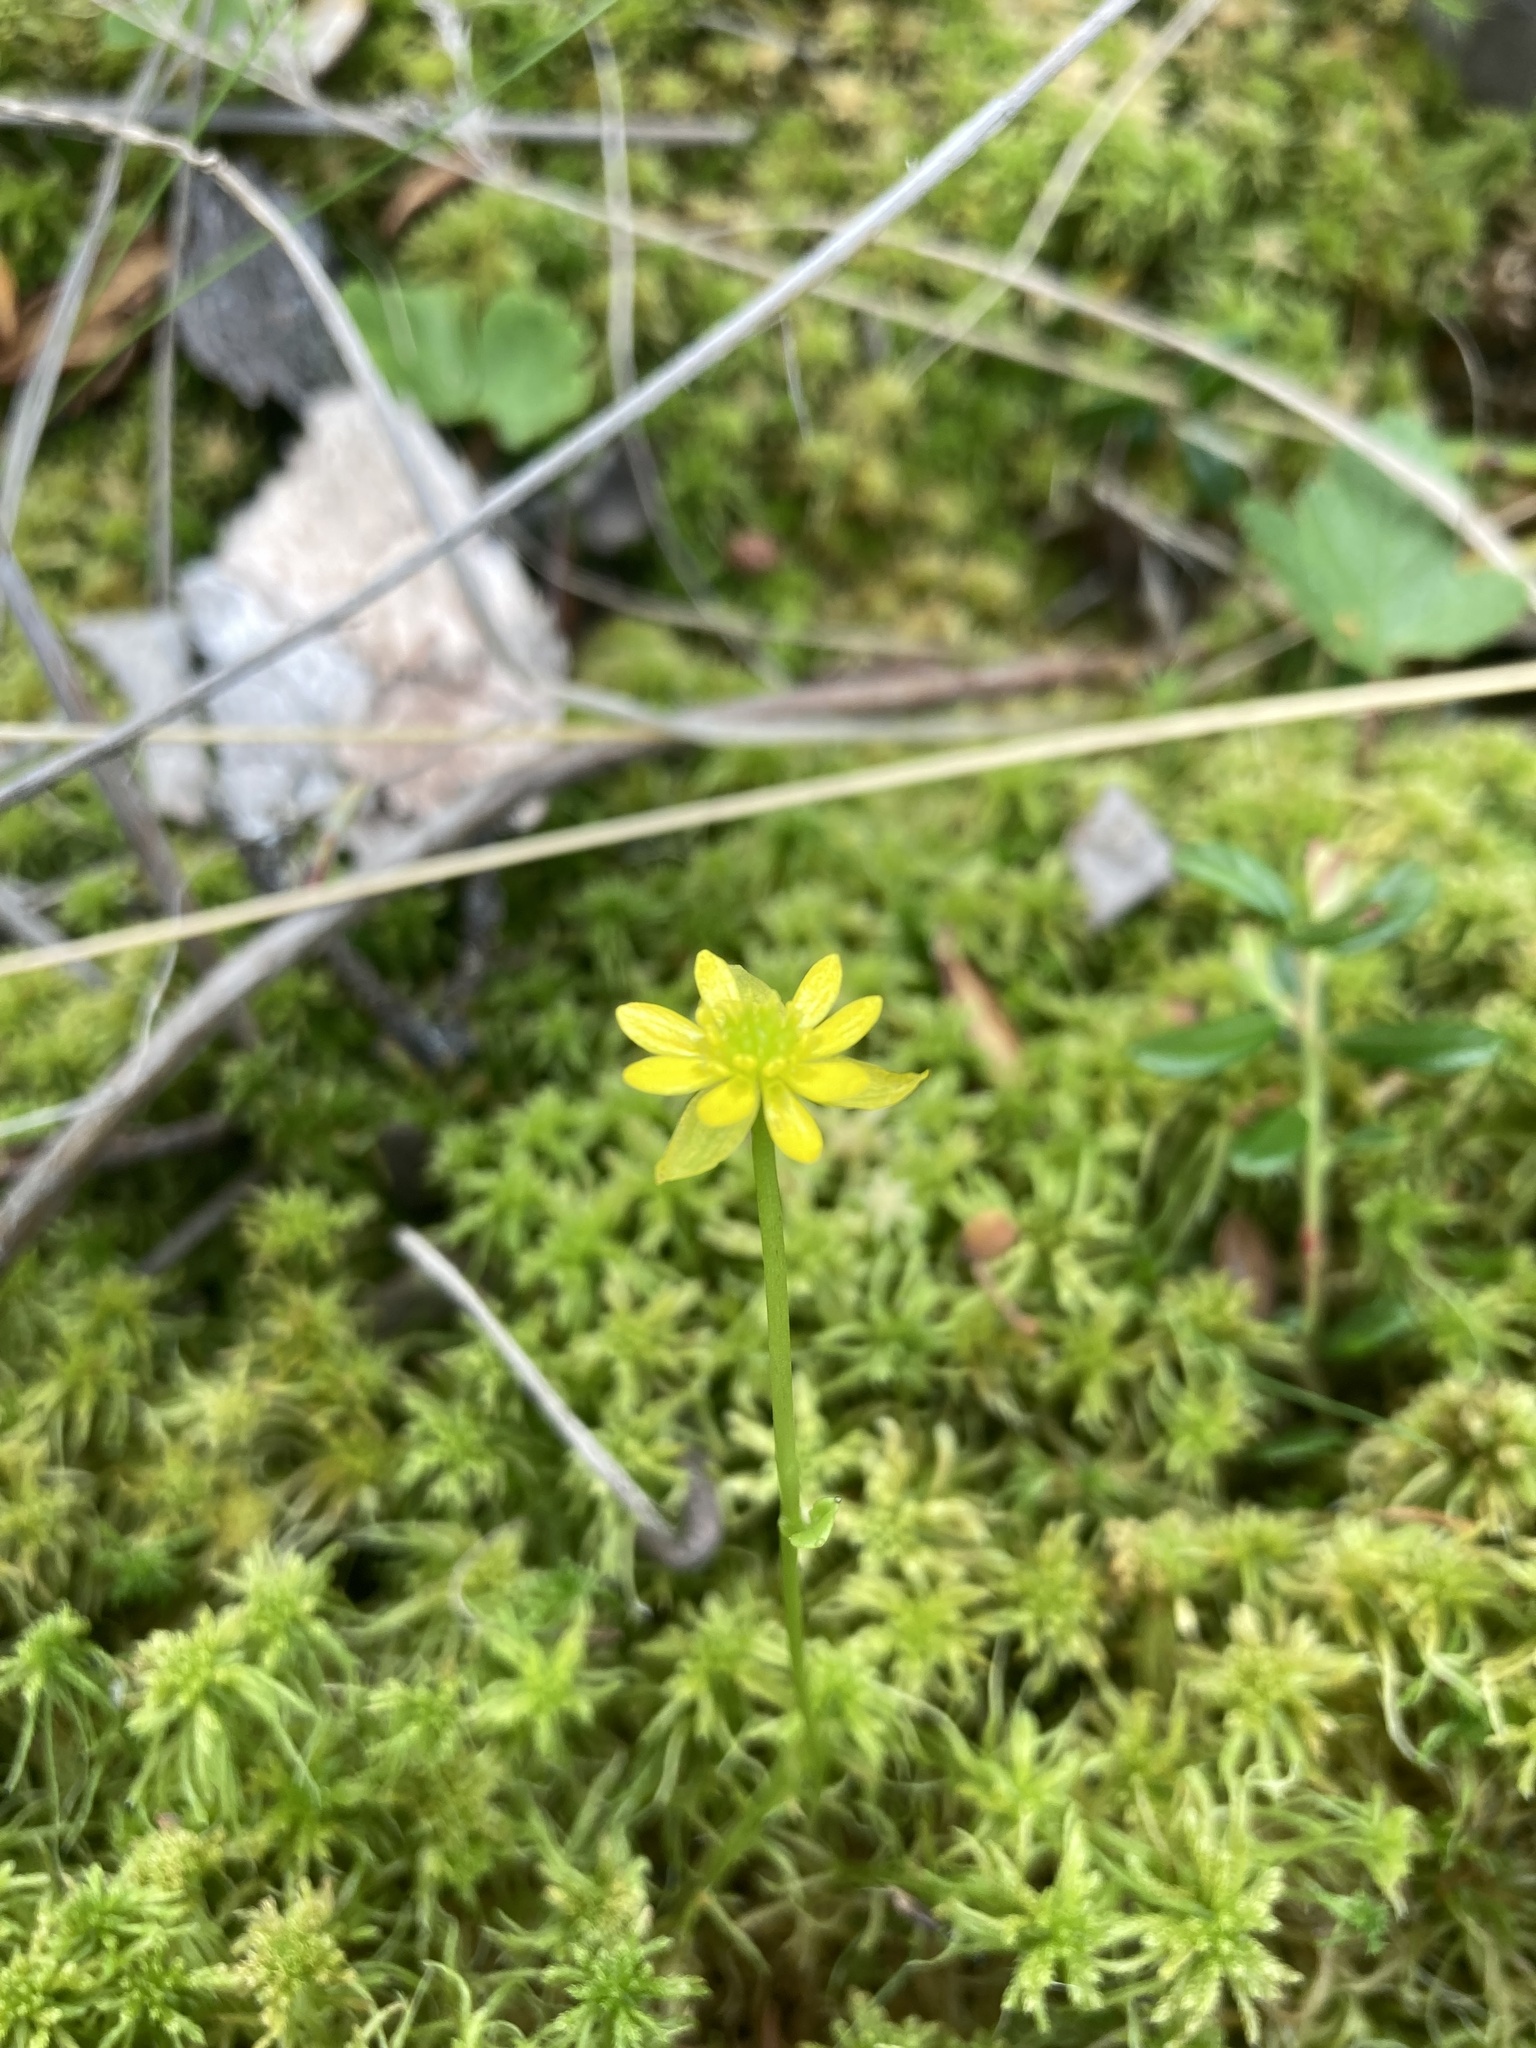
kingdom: Plantae
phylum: Tracheophyta
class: Magnoliopsida
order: Ranunculales
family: Ranunculaceae
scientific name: Ranunculaceae
